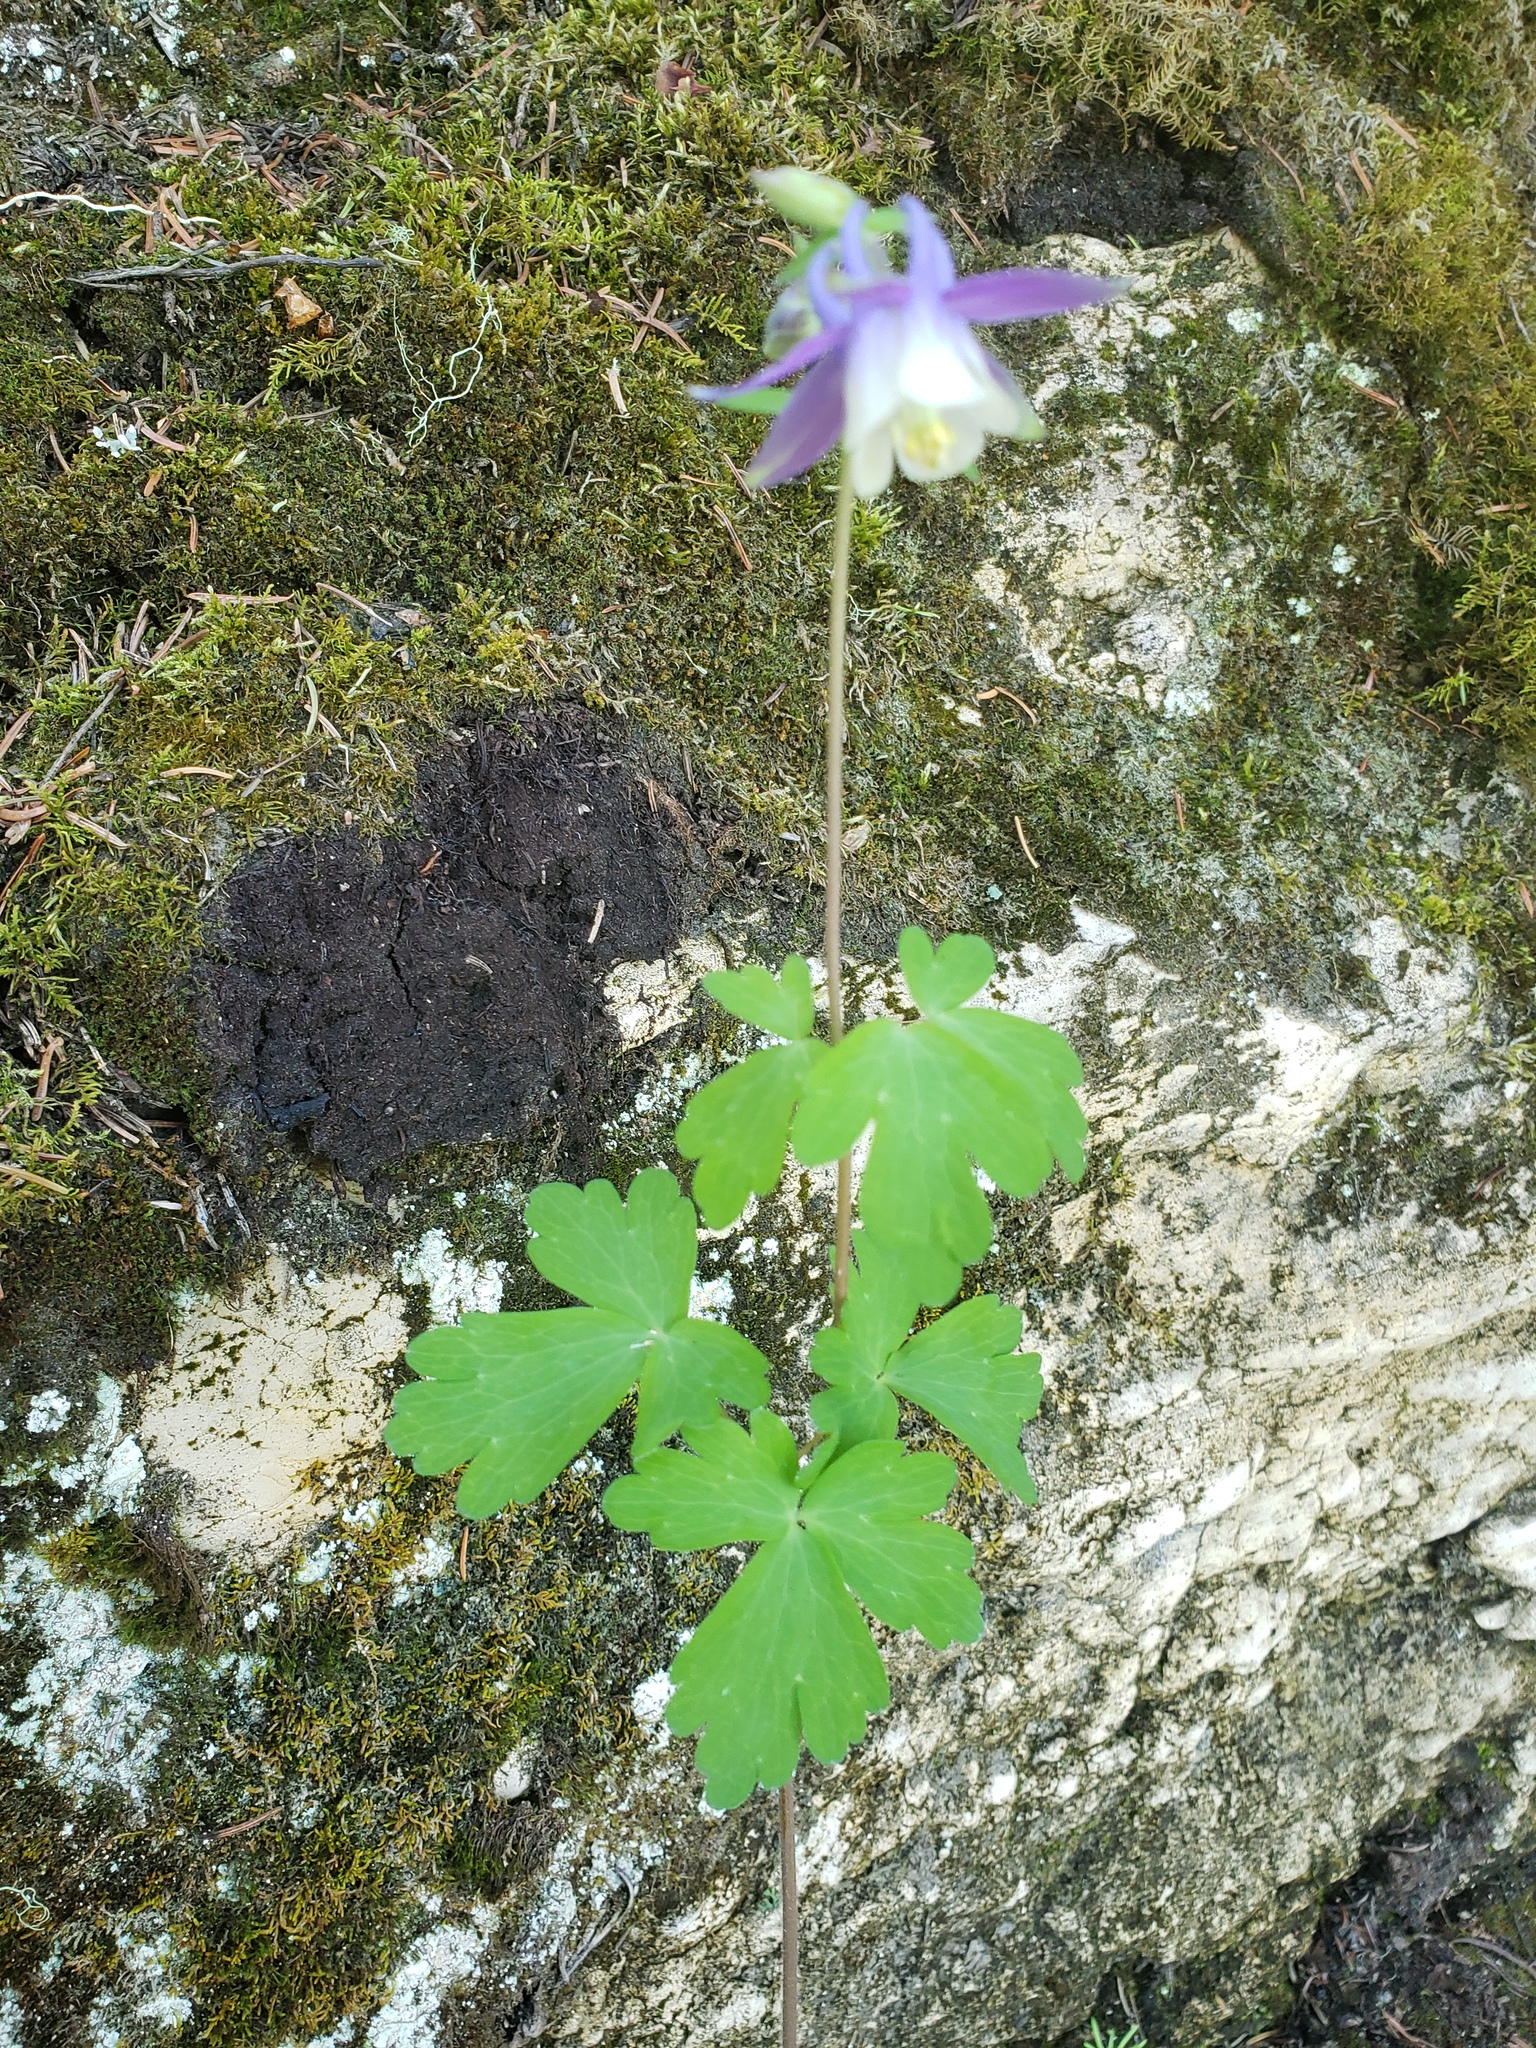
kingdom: Plantae
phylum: Tracheophyta
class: Magnoliopsida
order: Ranunculales
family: Ranunculaceae
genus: Aquilegia
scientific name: Aquilegia brevistyla
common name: Yukon columbine
